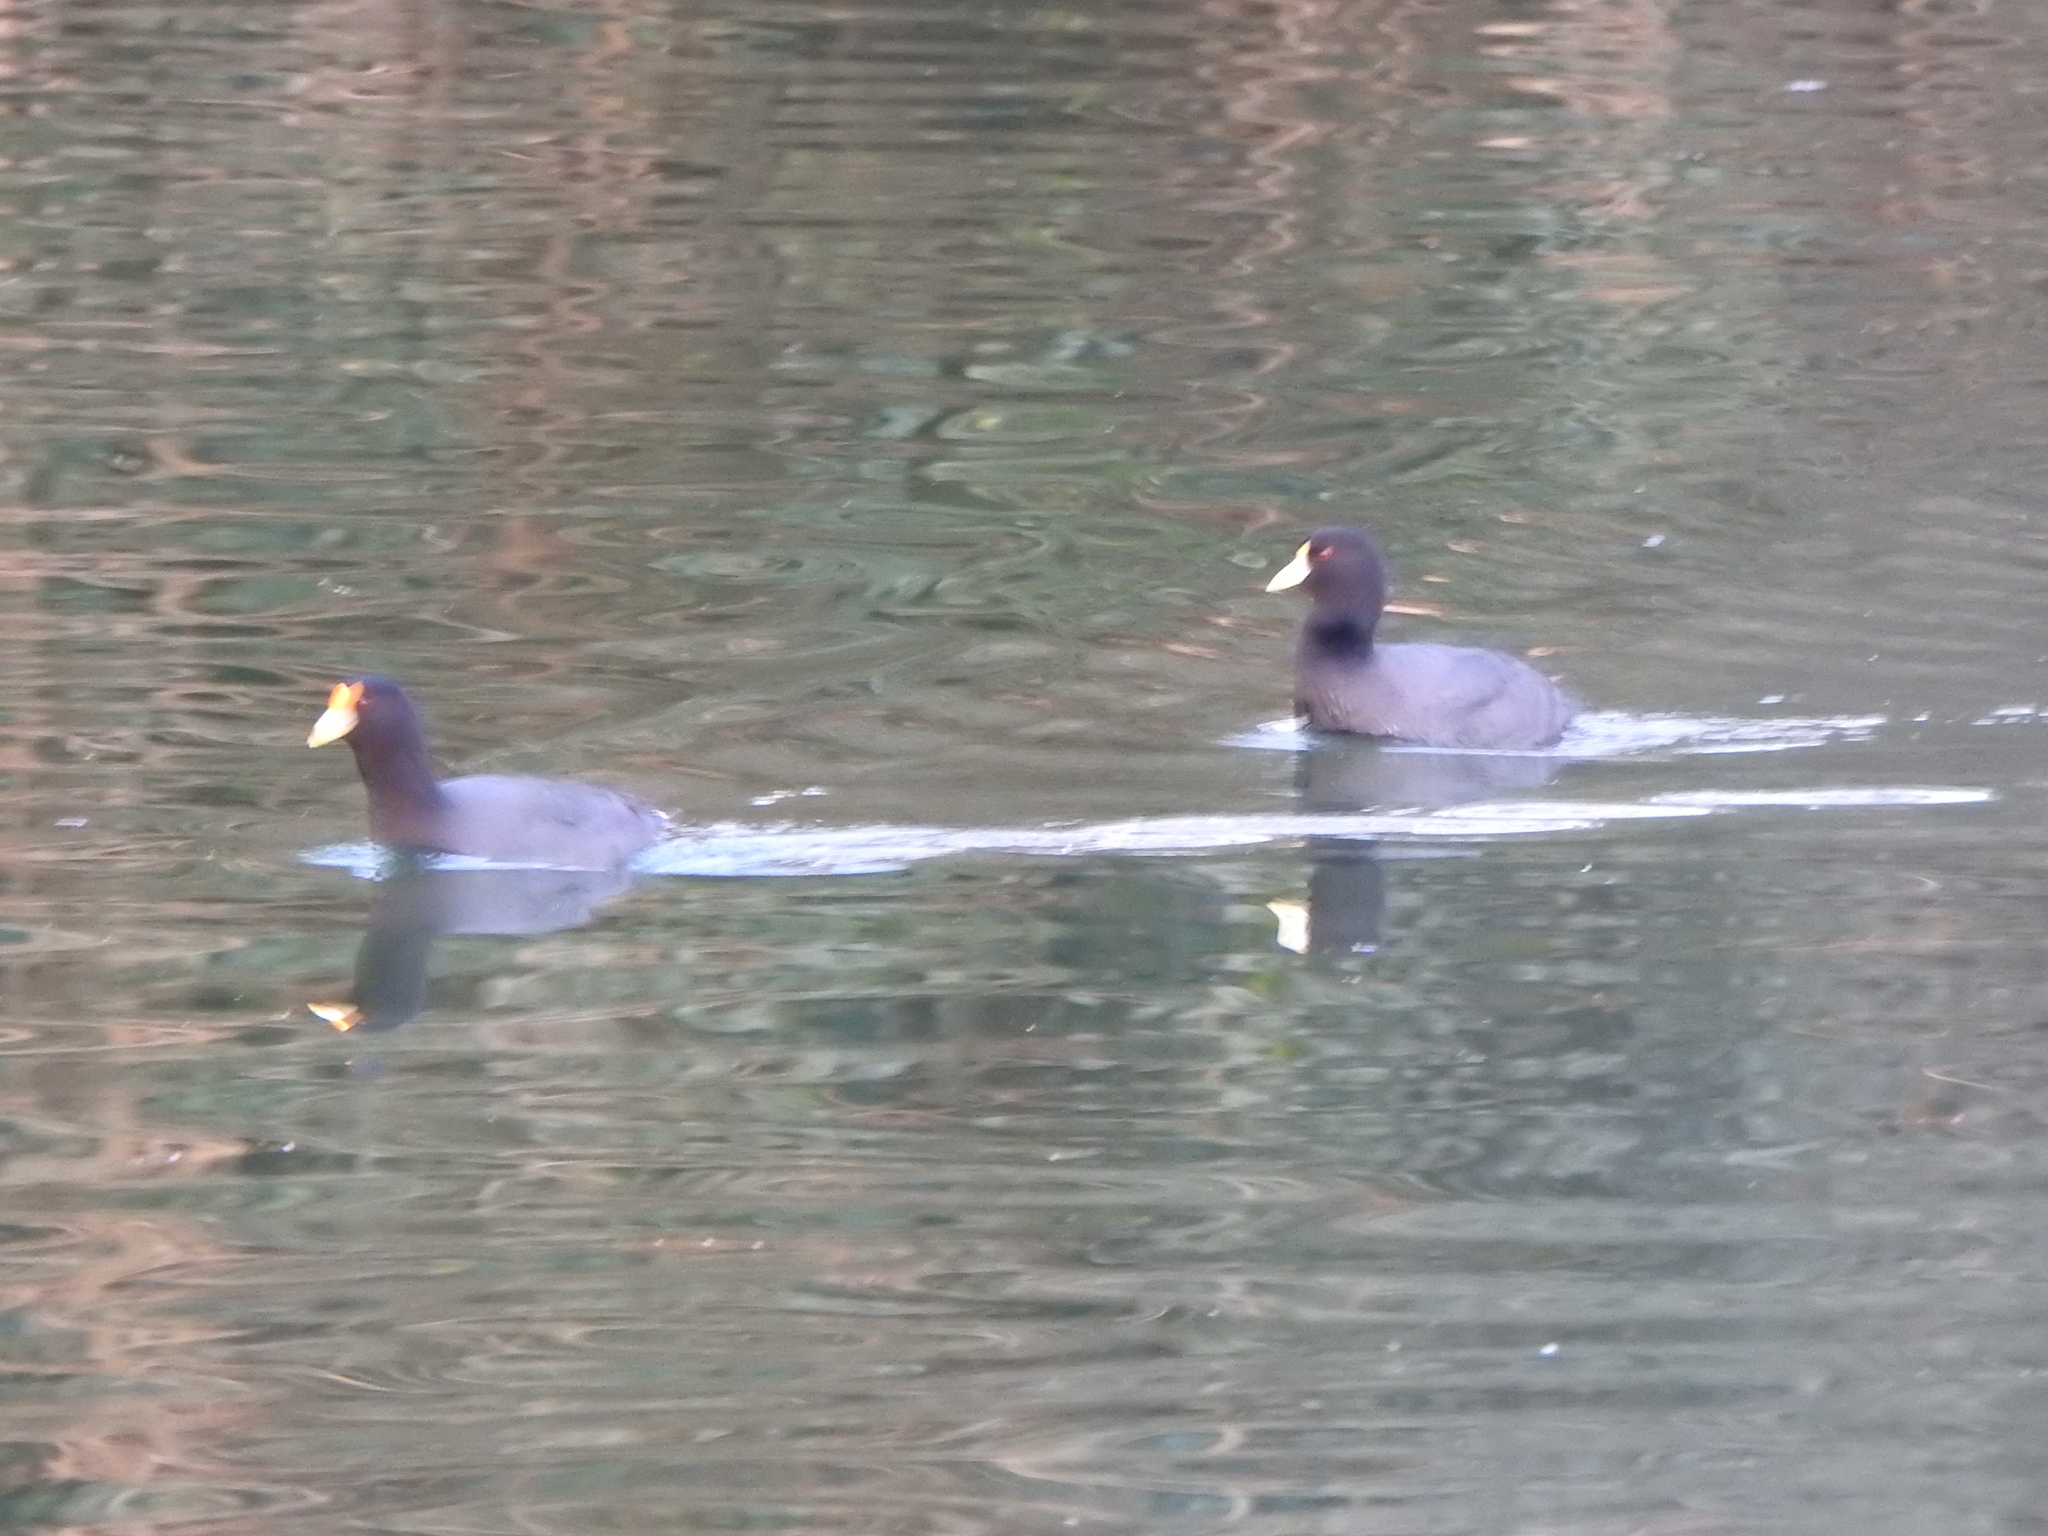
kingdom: Animalia
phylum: Chordata
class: Aves
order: Gruiformes
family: Rallidae
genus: Fulica
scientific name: Fulica leucoptera
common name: White-winged coot
